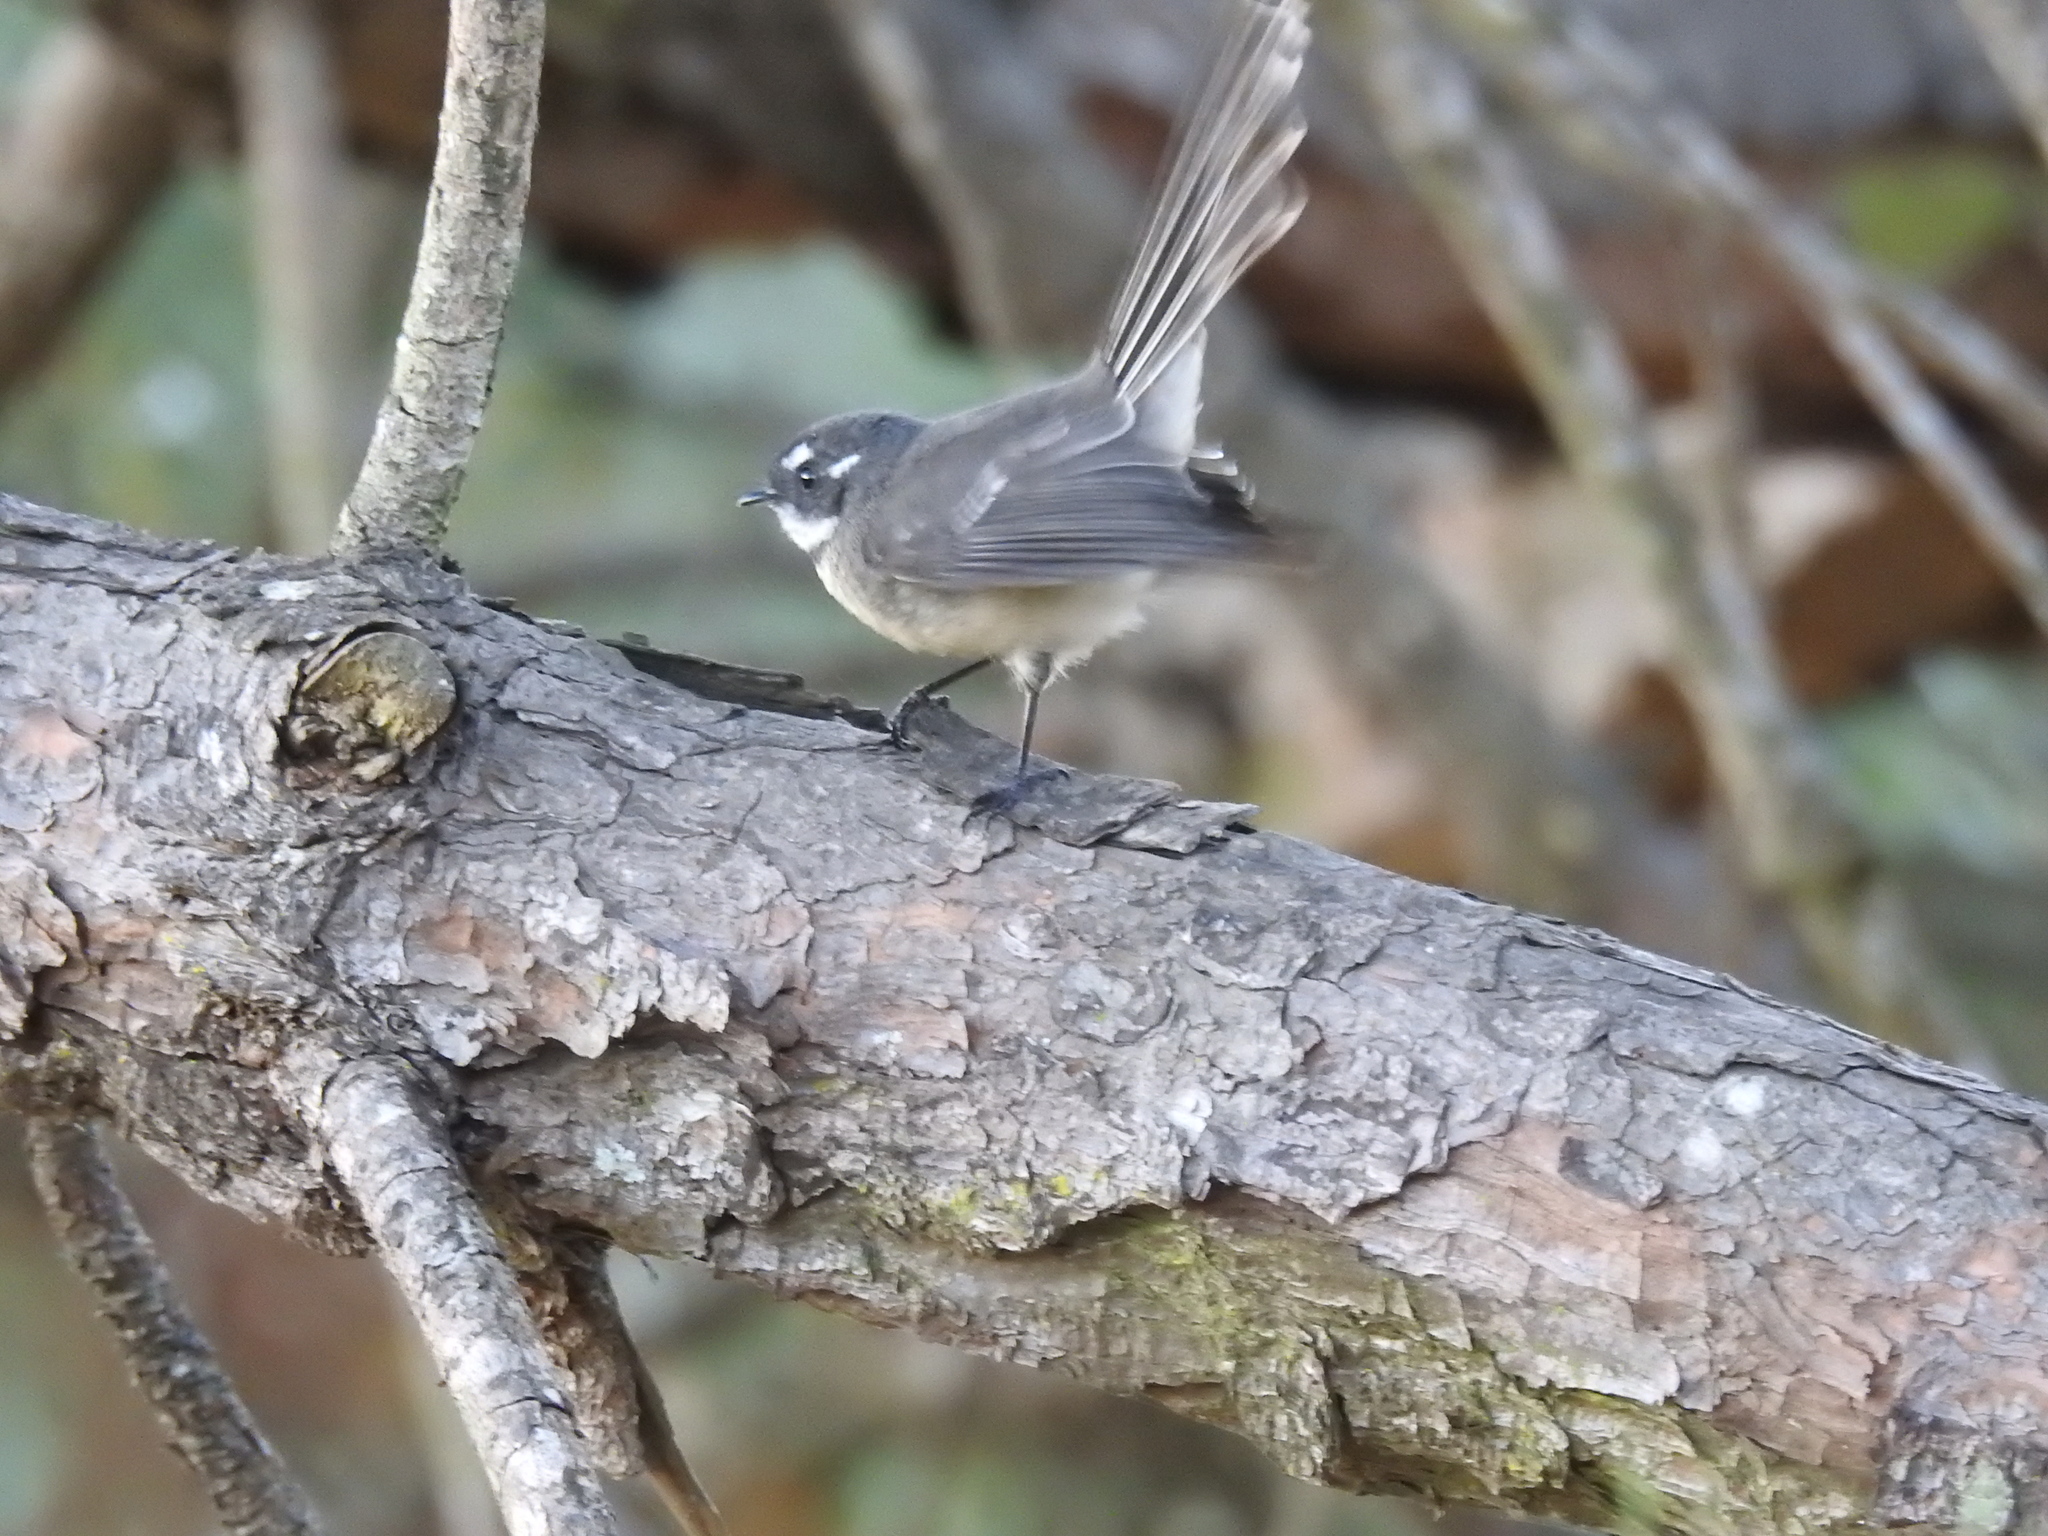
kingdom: Animalia
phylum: Chordata
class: Aves
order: Passeriformes
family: Rhipiduridae
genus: Rhipidura
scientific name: Rhipidura albiscapa
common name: Grey fantail
